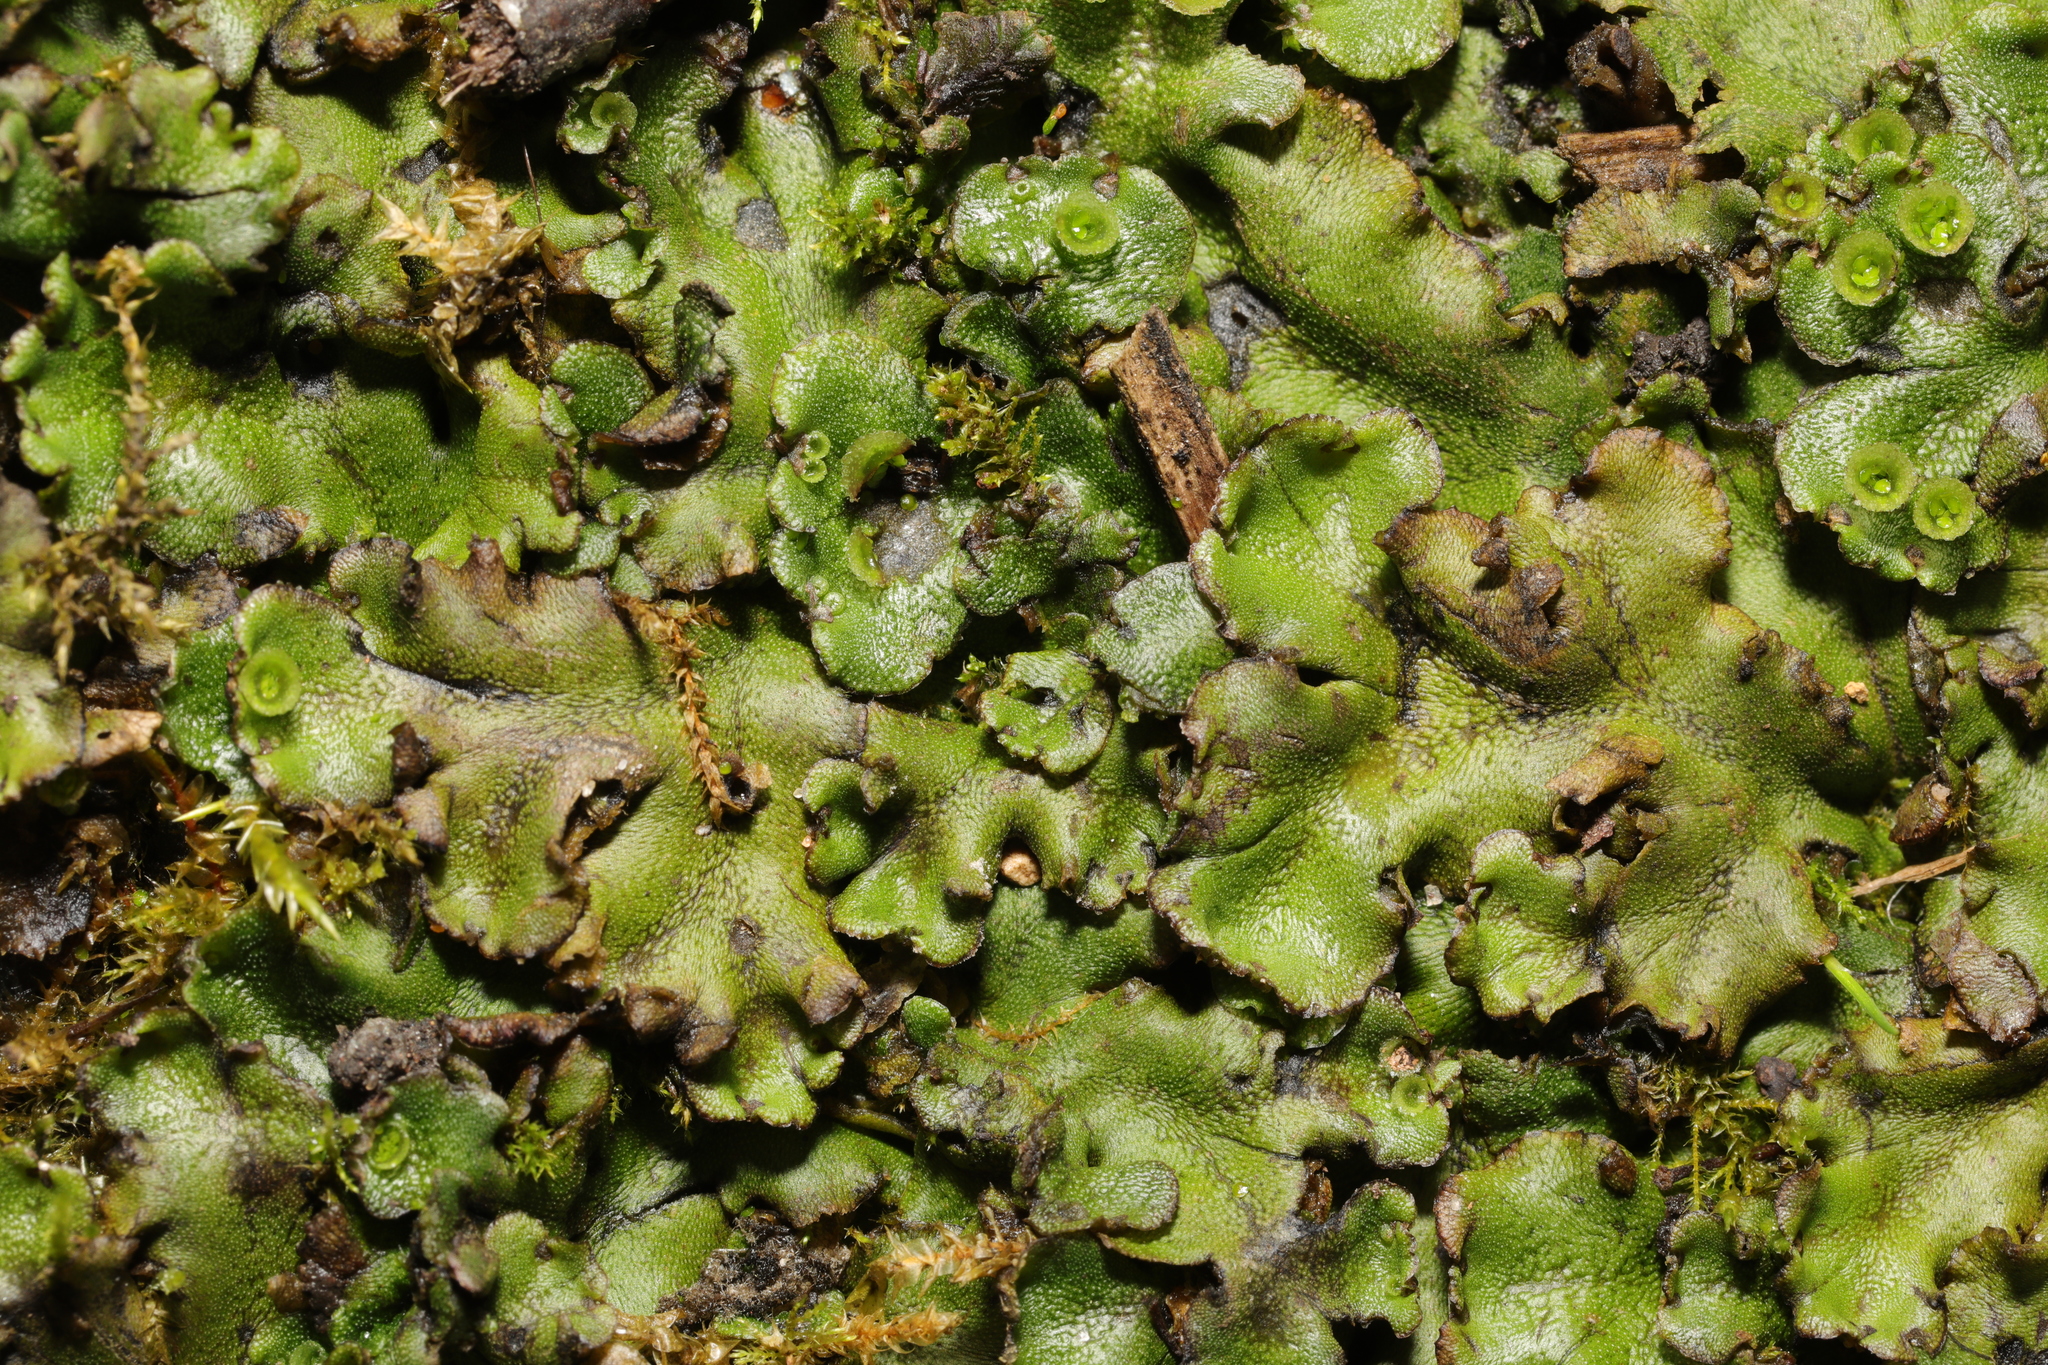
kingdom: Plantae
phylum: Marchantiophyta
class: Marchantiopsida
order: Marchantiales
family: Marchantiaceae
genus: Marchantia
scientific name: Marchantia polymorpha
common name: Common liverwort
